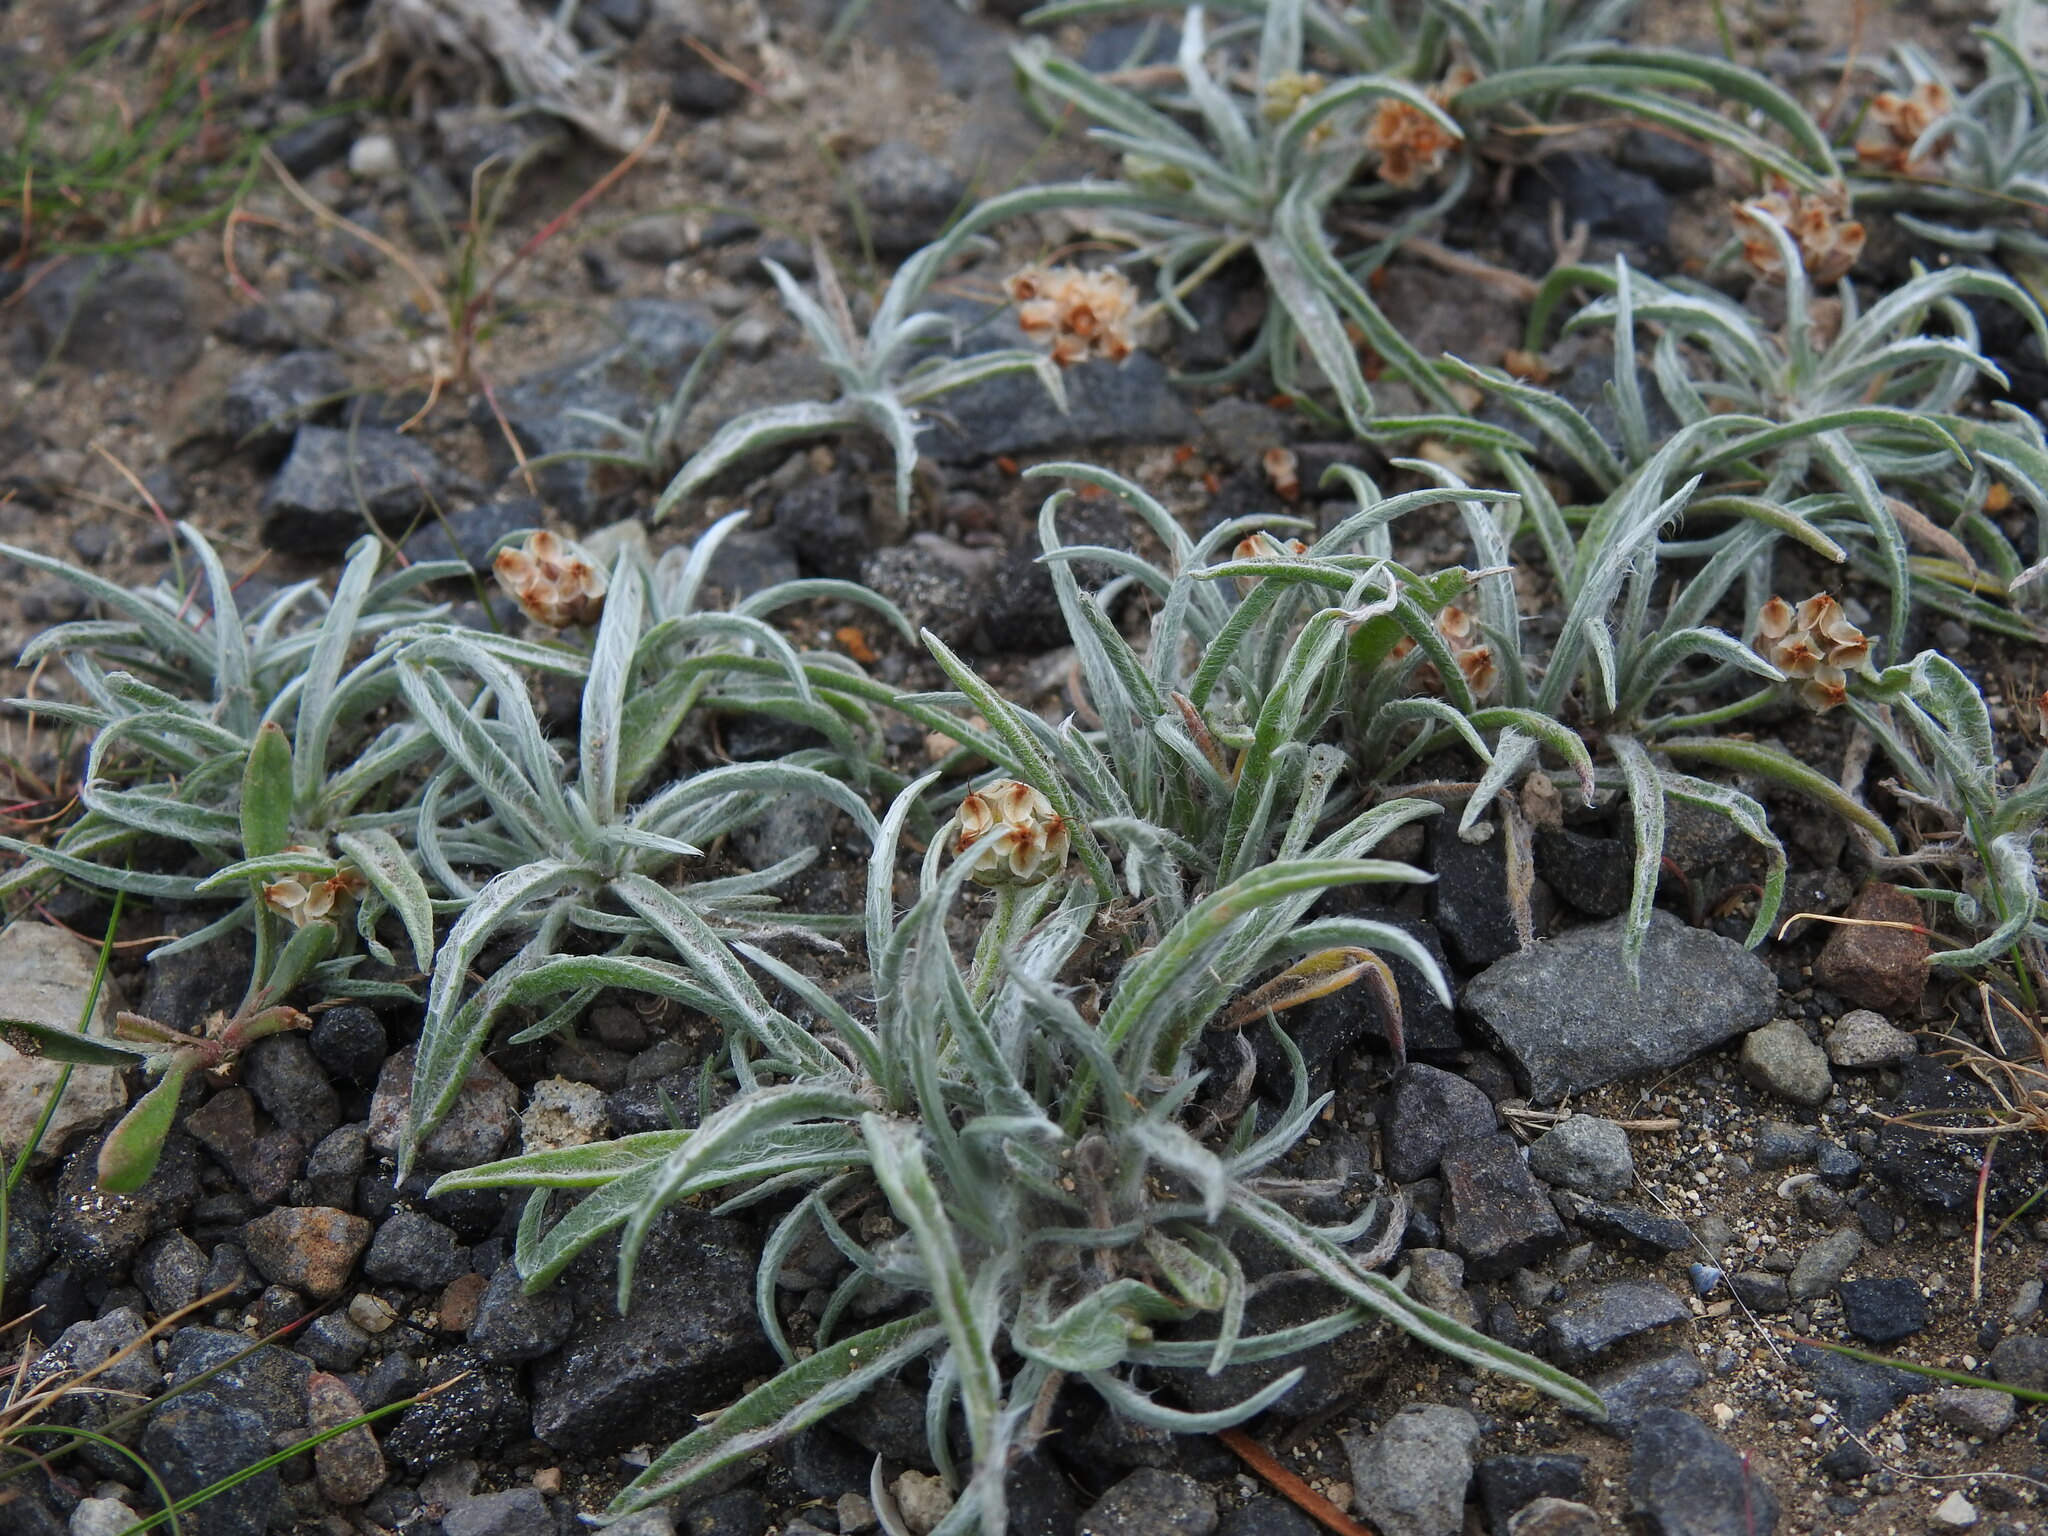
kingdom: Plantae
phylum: Tracheophyta
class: Magnoliopsida
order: Lamiales
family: Plantaginaceae
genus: Plantago
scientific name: Plantago ovata
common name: Blond plantain
